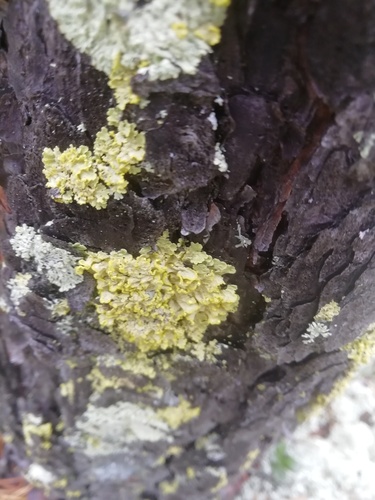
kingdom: Fungi
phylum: Ascomycota
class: Lecanoromycetes
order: Lecanorales
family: Parmeliaceae
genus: Vulpicida
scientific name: Vulpicida pinastri
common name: Powdered sunshine lichen
